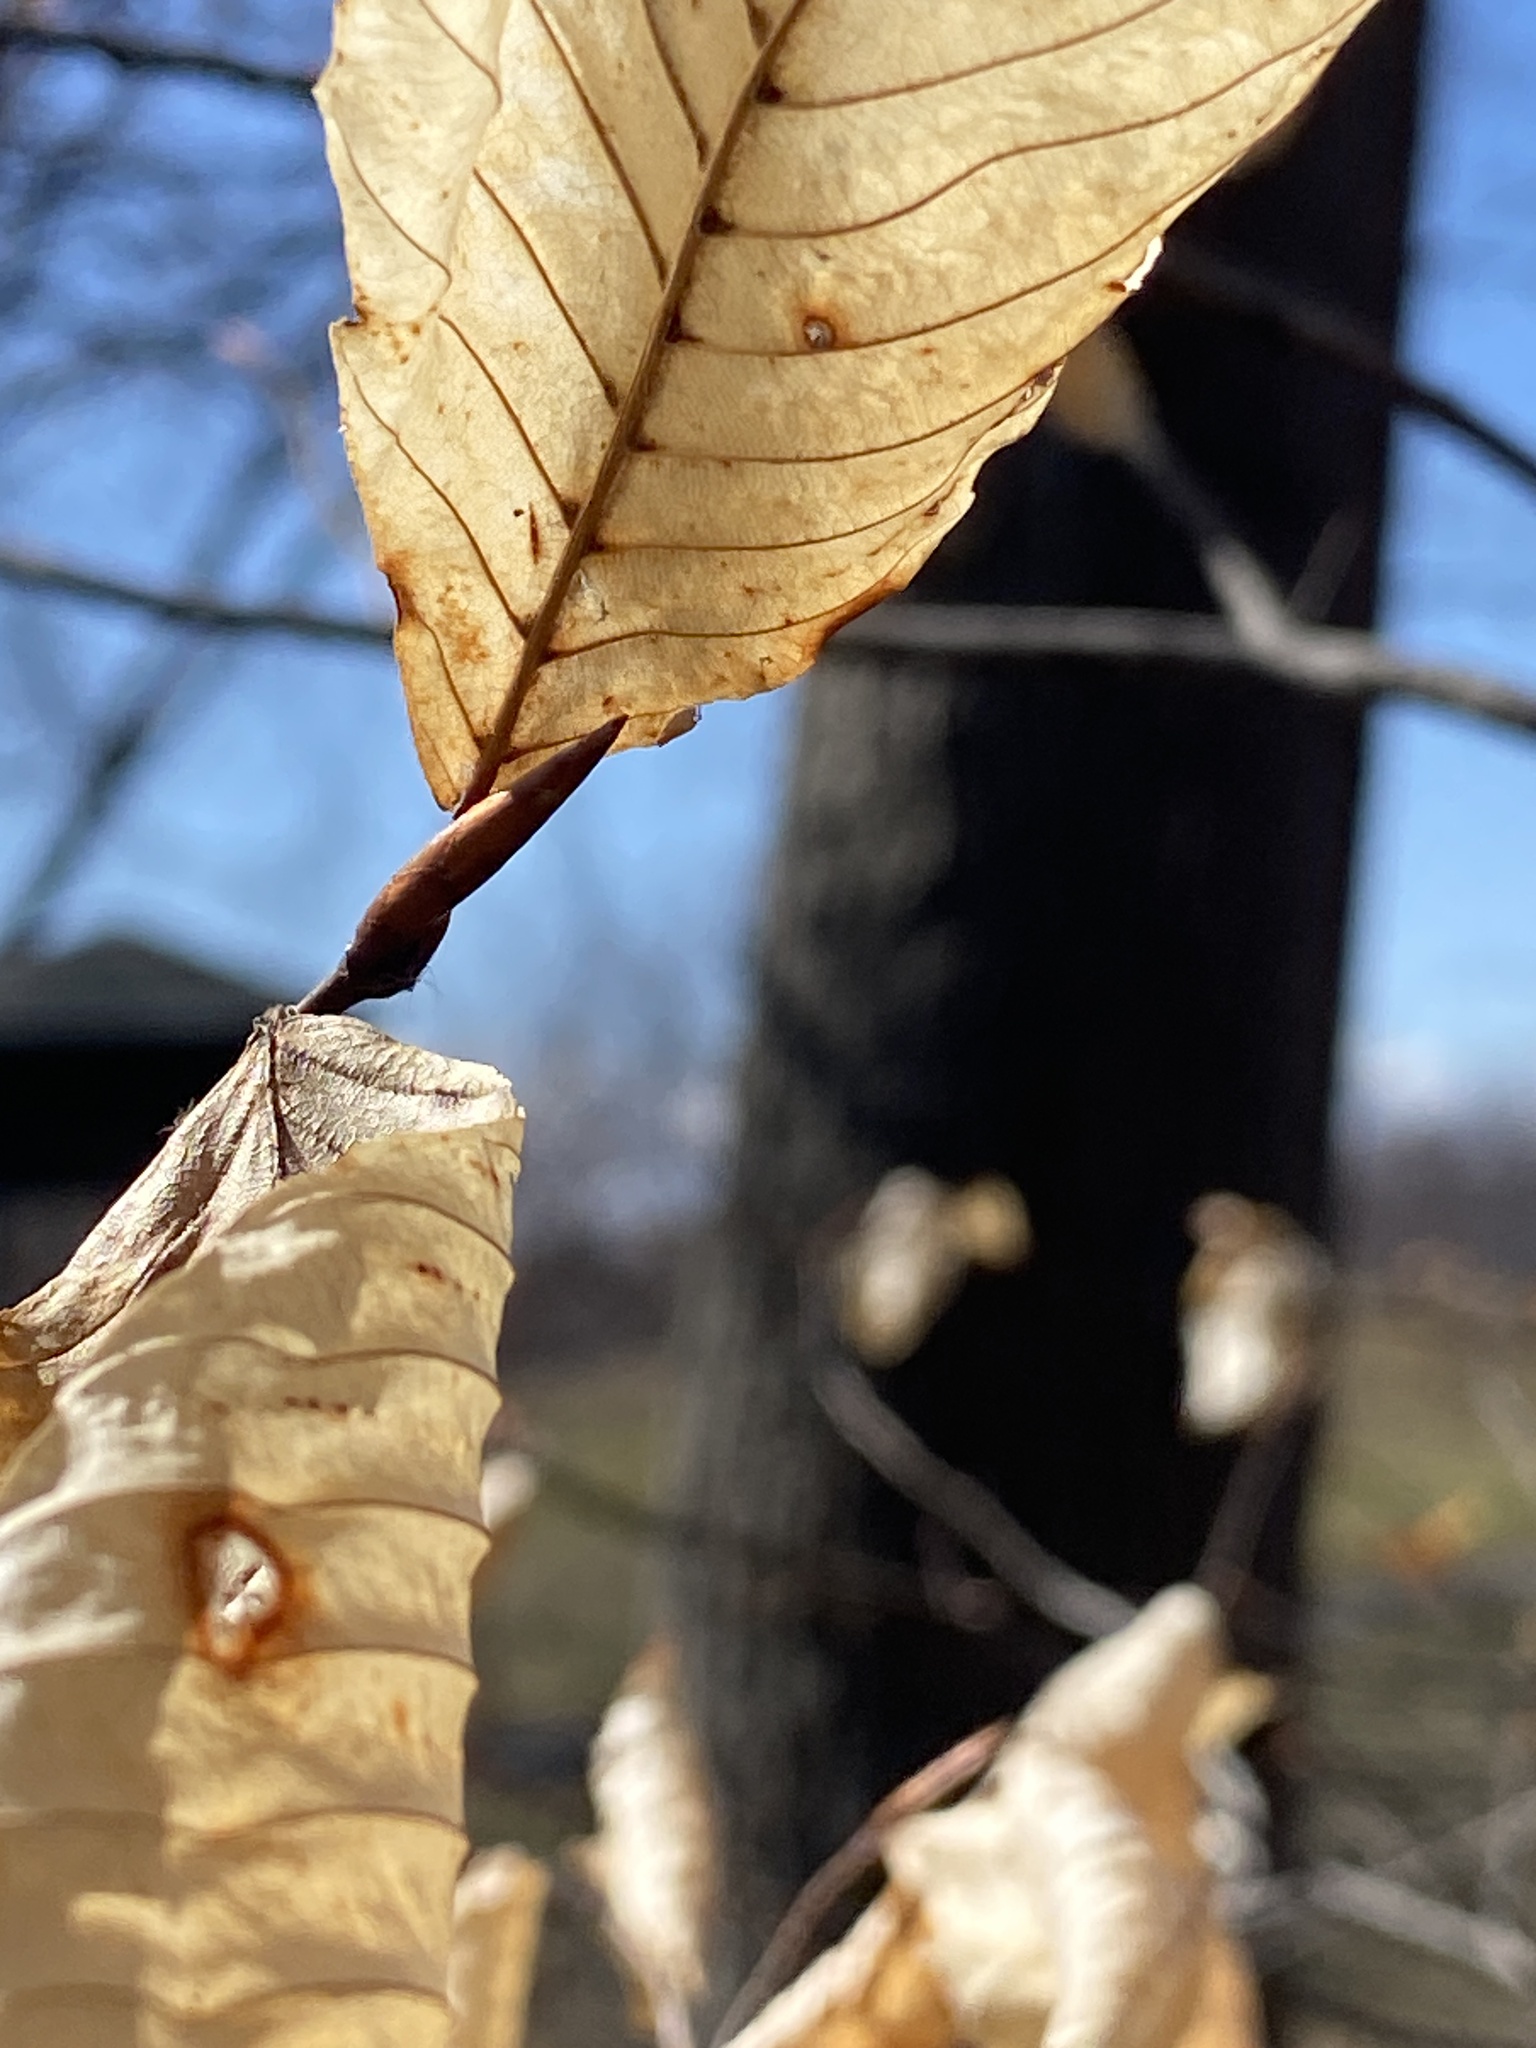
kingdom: Plantae
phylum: Tracheophyta
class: Magnoliopsida
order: Fagales
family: Fagaceae
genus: Fagus
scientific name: Fagus grandifolia
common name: American beech
